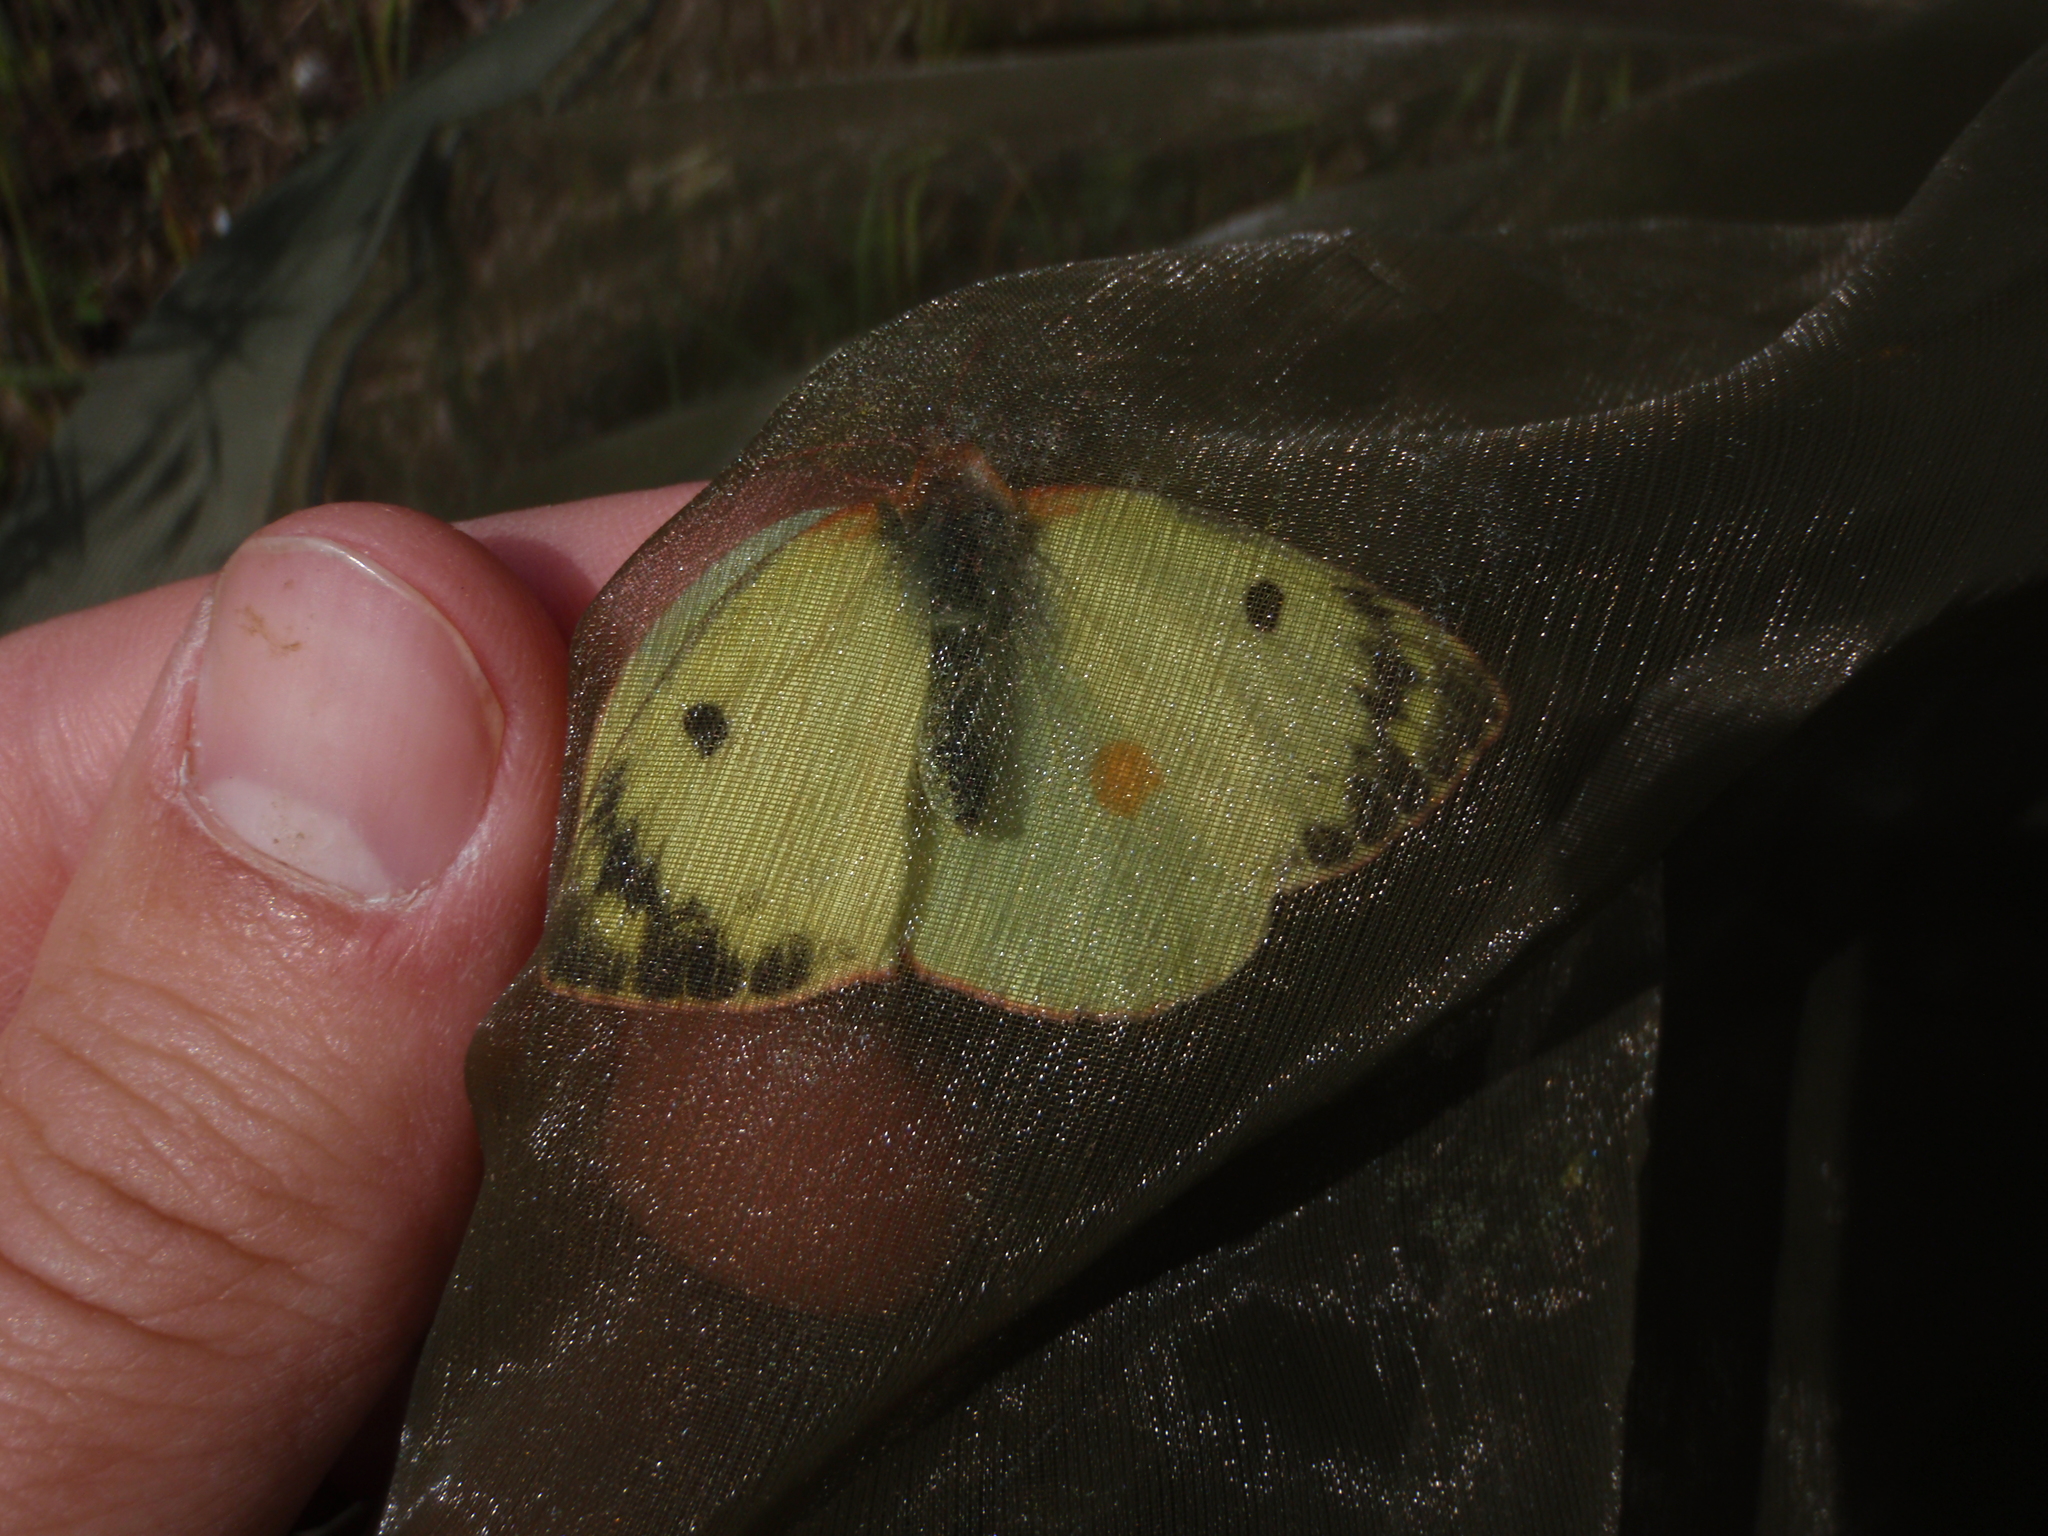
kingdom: Animalia
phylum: Arthropoda
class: Insecta
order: Lepidoptera
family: Pieridae
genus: Colias
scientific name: Colias alfacariensis
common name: Berger's clouded yellow
